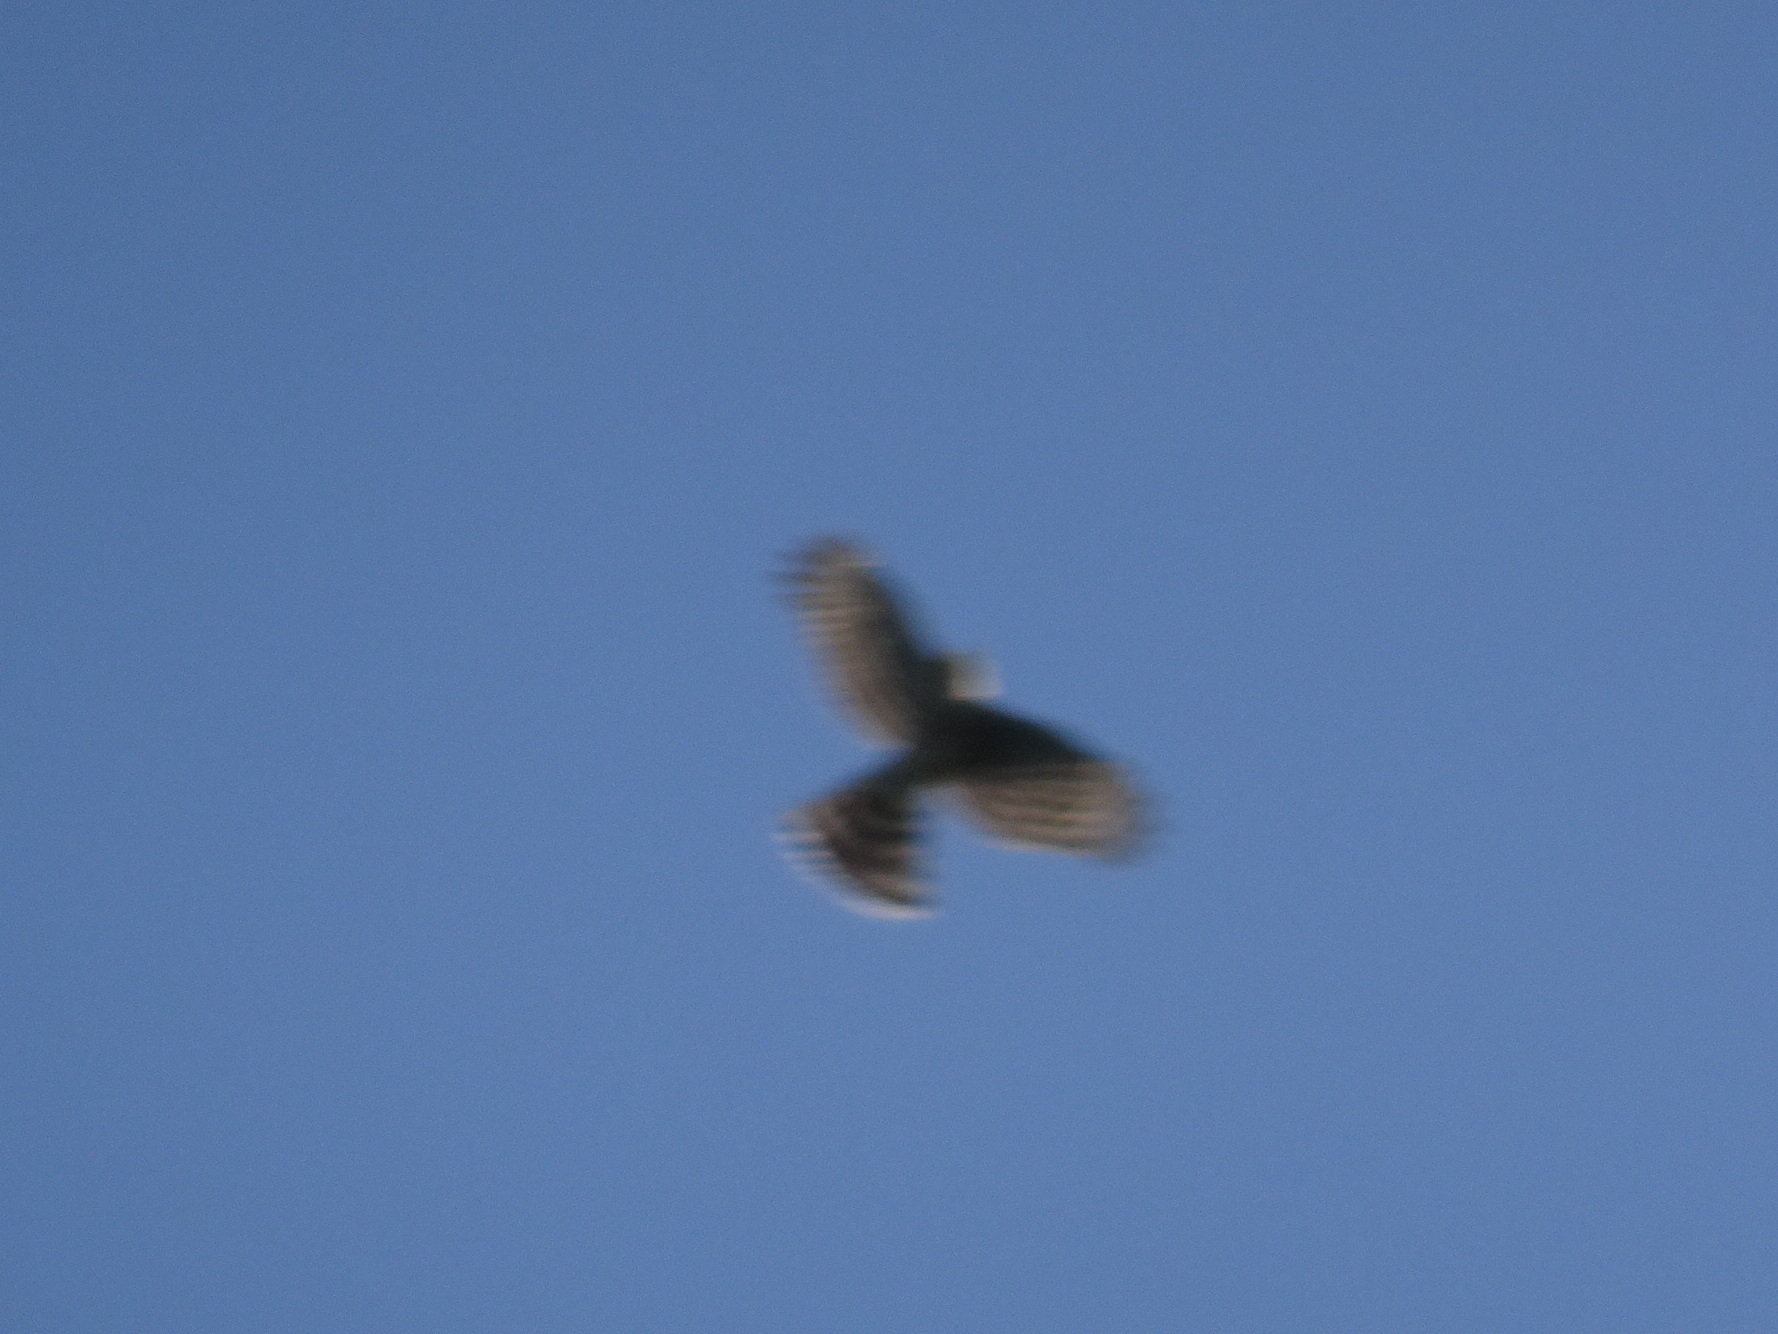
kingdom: Animalia
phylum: Chordata
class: Aves
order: Accipitriformes
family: Accipitridae
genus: Accipiter
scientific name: Accipiter striatus
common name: Sharp-shinned hawk
